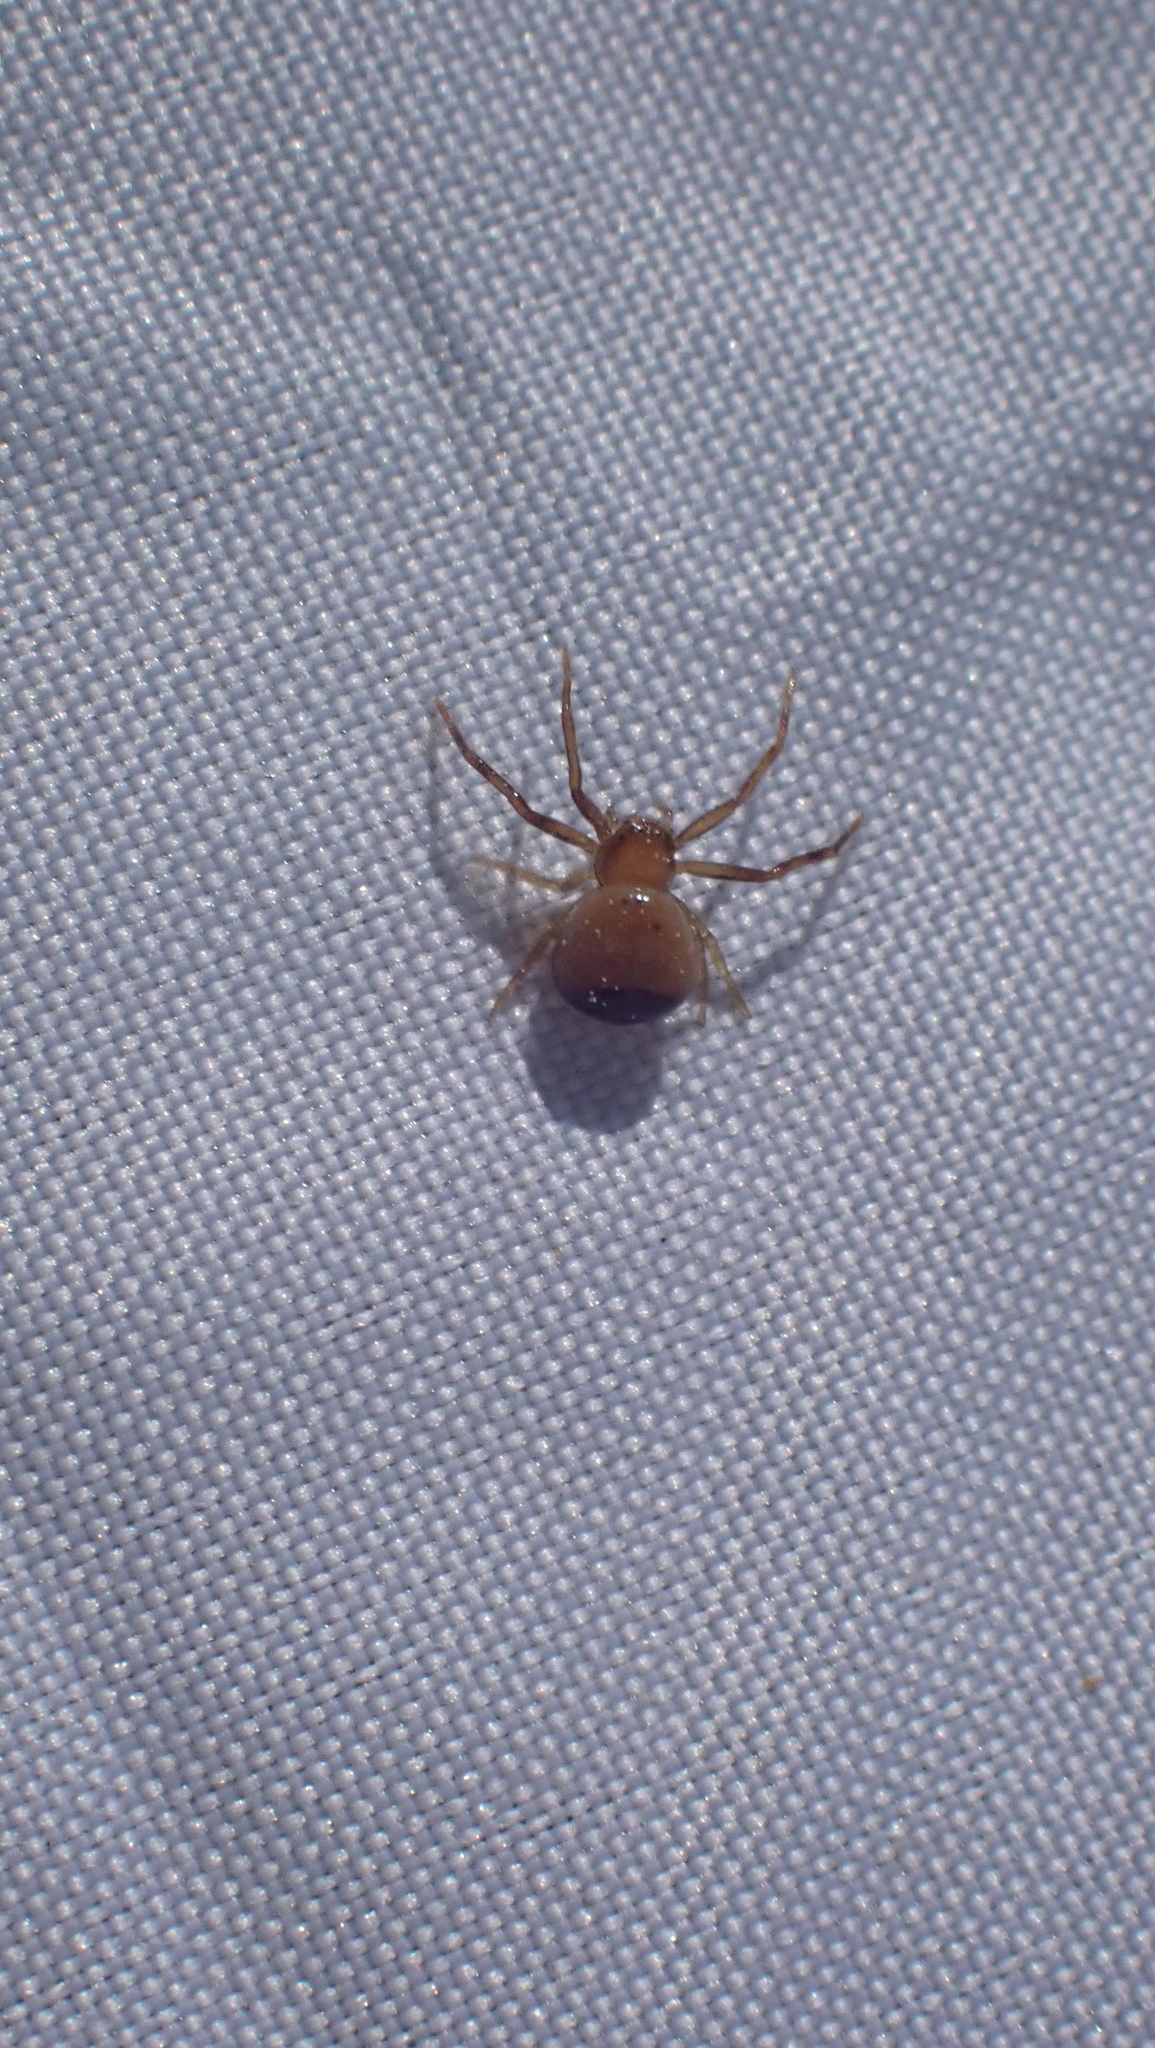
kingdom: Animalia
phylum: Arthropoda
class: Arachnida
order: Araneae
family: Thomisidae
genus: Synema
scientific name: Synema parvulum
